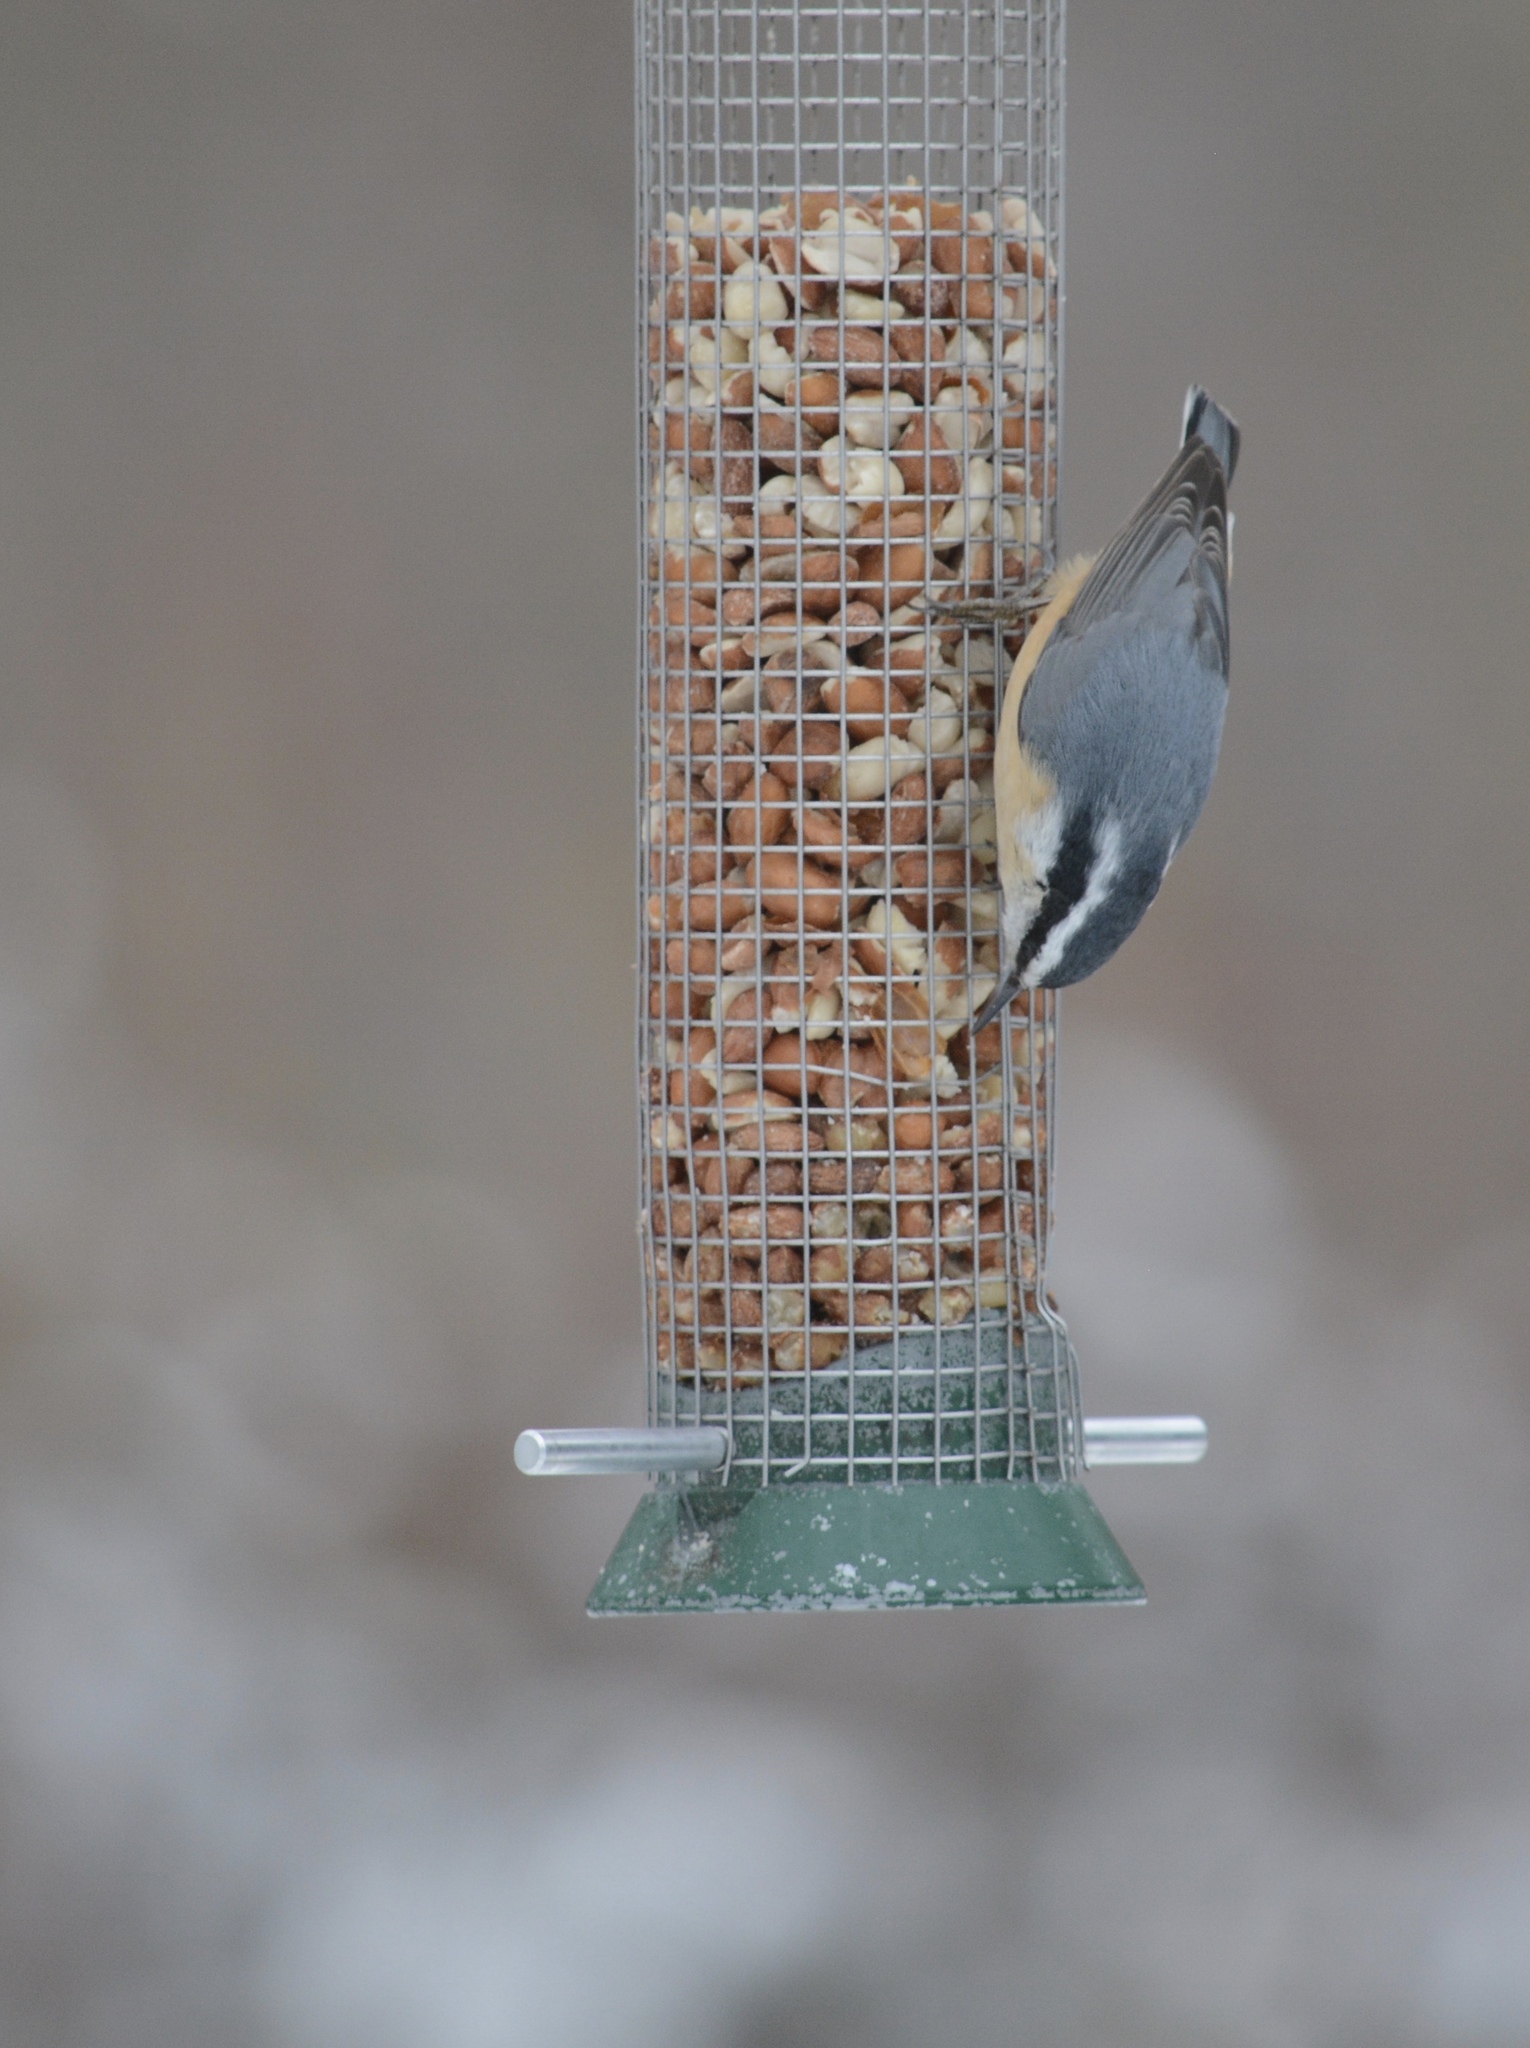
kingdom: Animalia
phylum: Chordata
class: Aves
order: Passeriformes
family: Sittidae
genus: Sitta
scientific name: Sitta canadensis
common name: Red-breasted nuthatch
